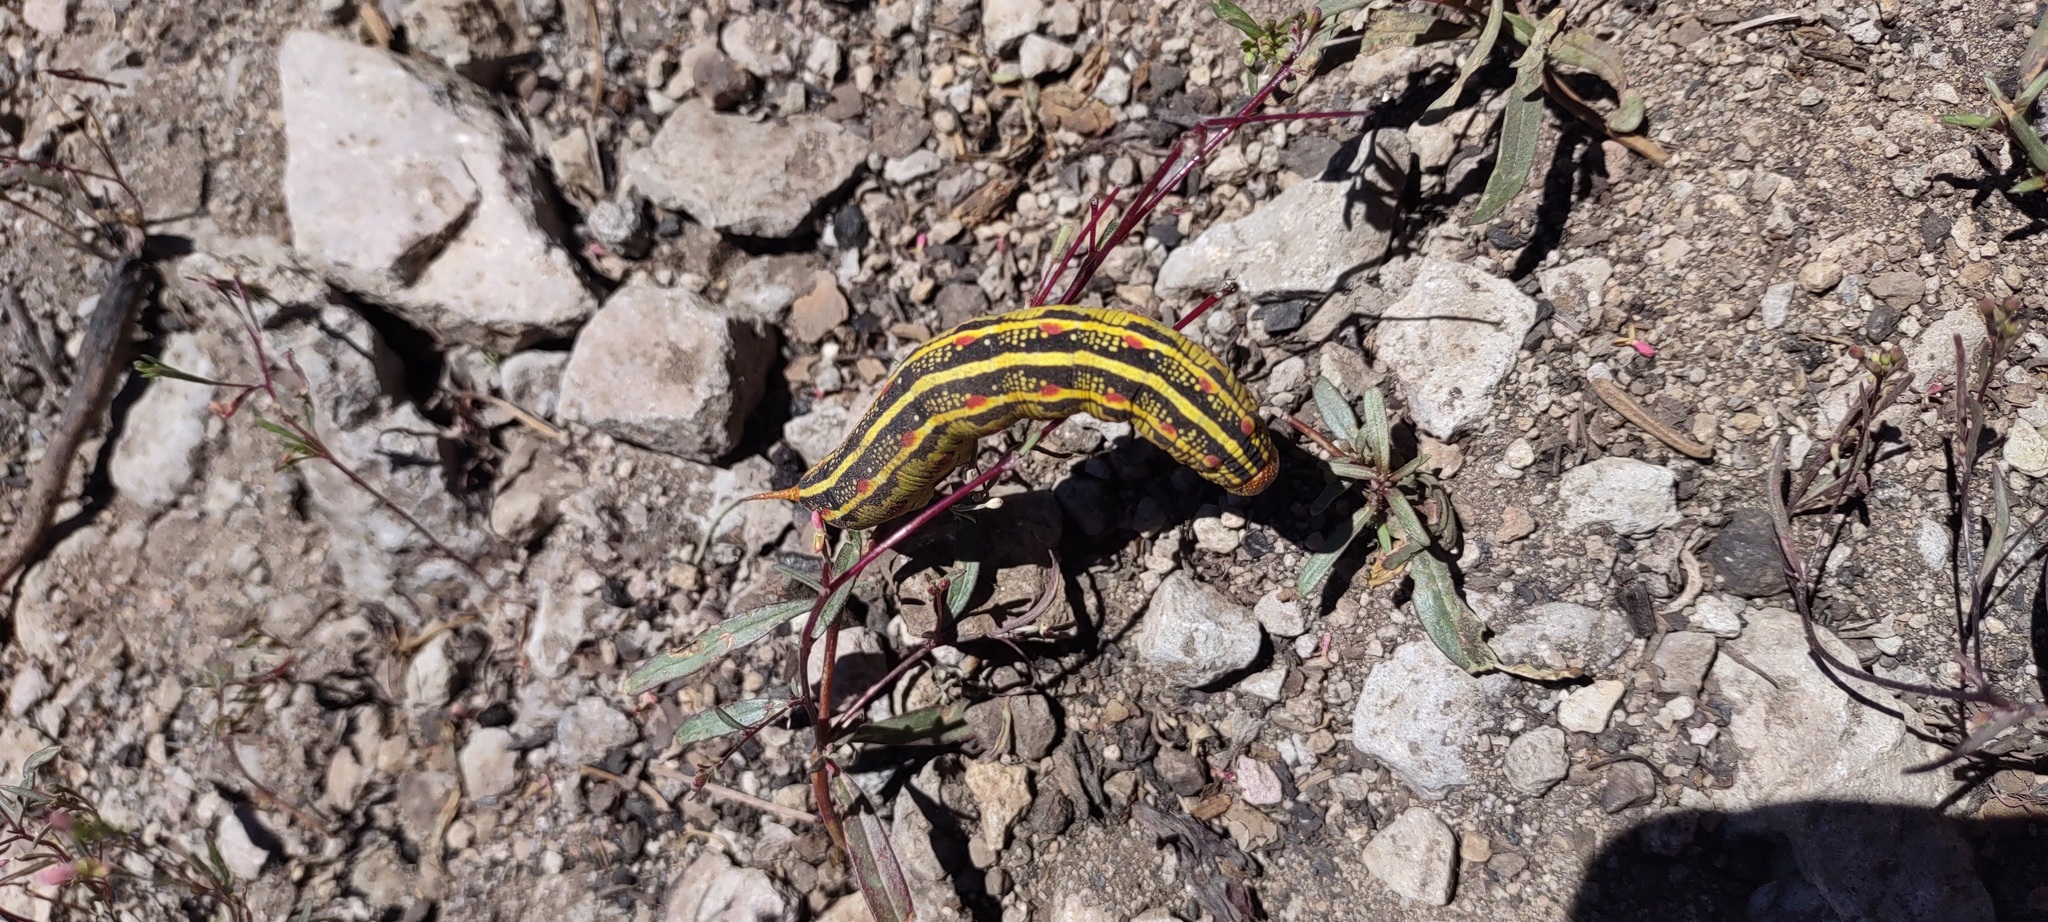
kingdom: Animalia
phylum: Arthropoda
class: Insecta
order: Lepidoptera
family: Sphingidae
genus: Hyles
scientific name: Hyles lineata
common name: White-lined sphinx
